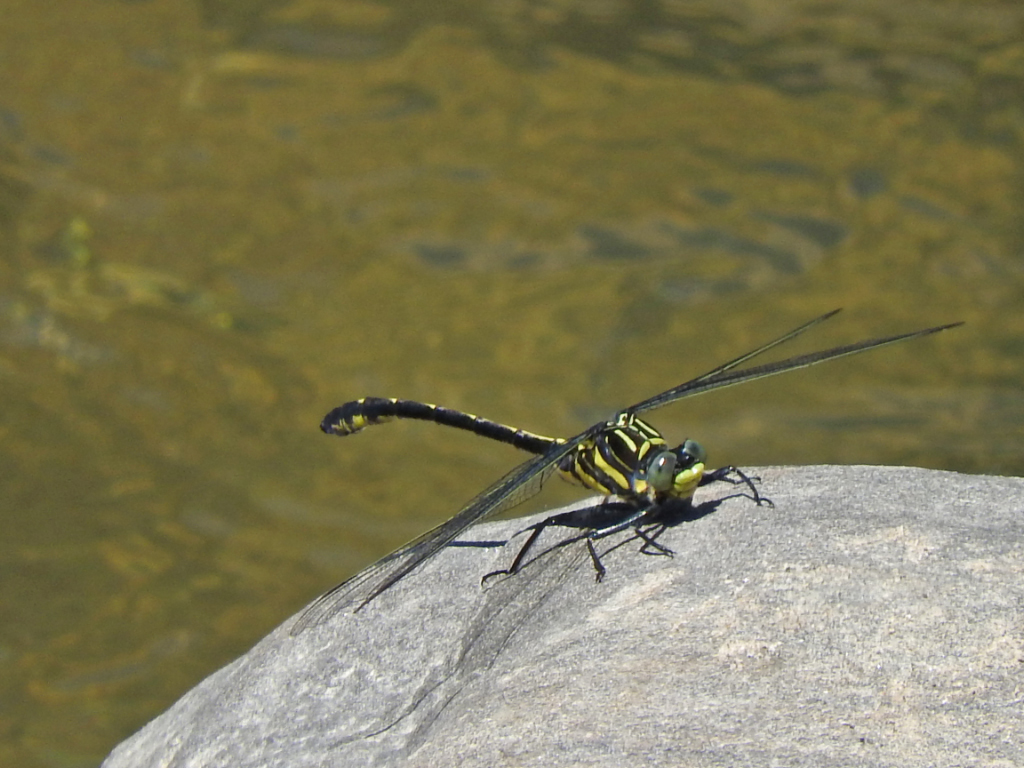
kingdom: Animalia
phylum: Arthropoda
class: Insecta
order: Odonata
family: Gomphidae
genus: Hagenius
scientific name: Hagenius brevistylus
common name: Dragonhunter
